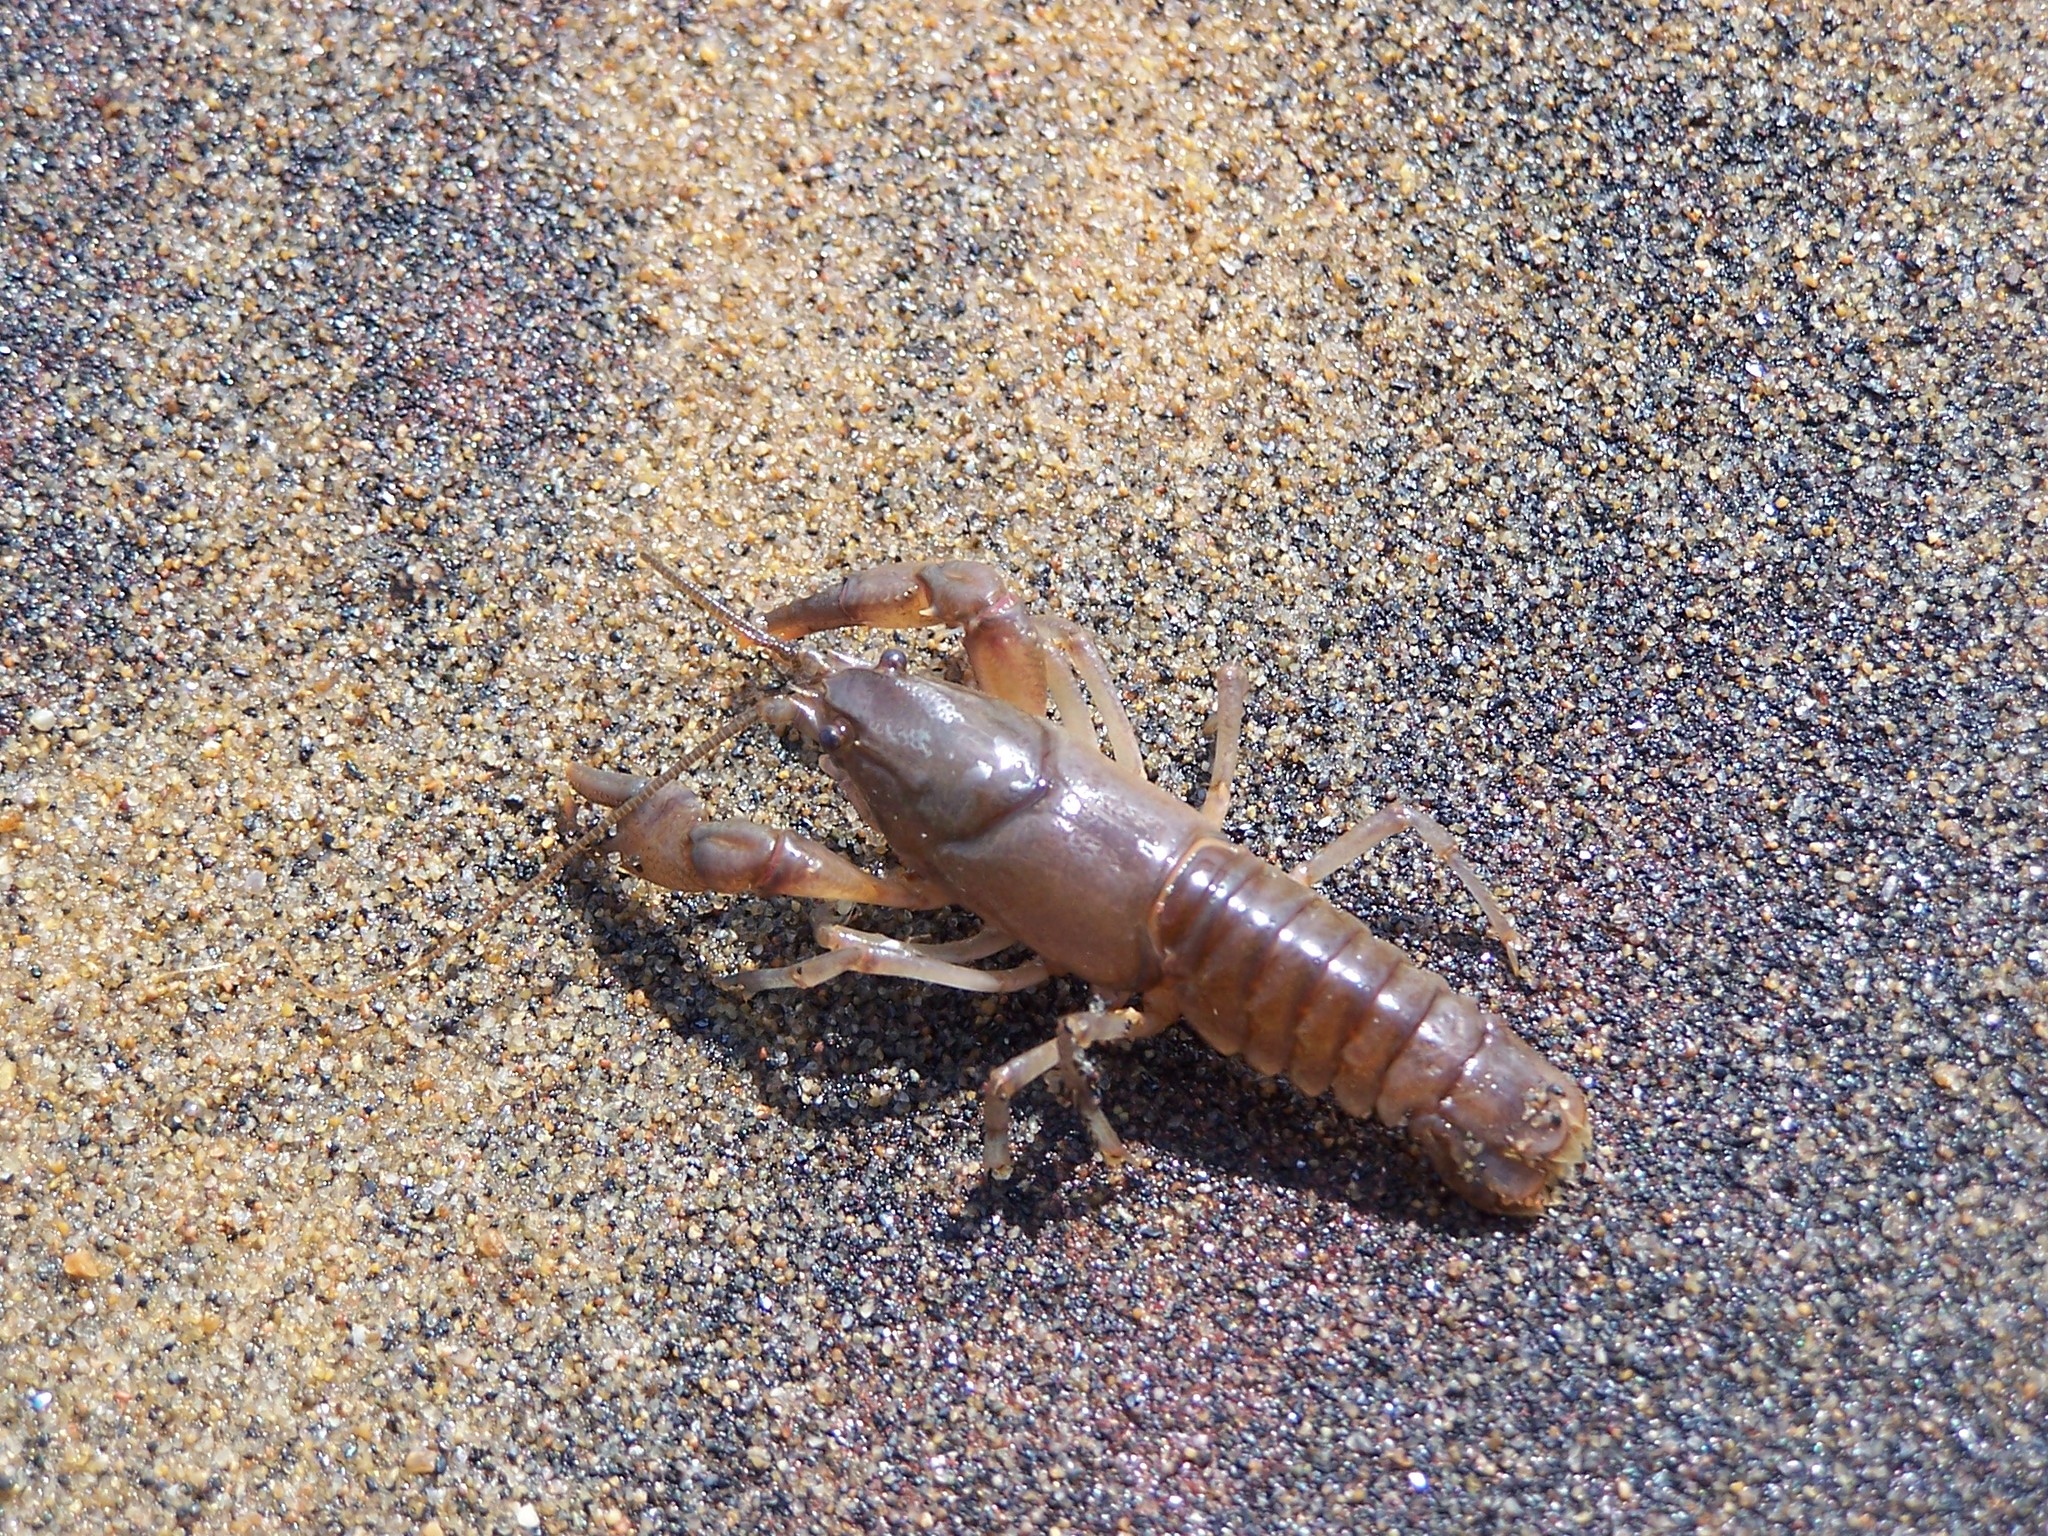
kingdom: Animalia
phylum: Arthropoda
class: Malacostraca
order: Decapoda
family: Cambaridae
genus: Cambarus
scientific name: Cambarus bartonii
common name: Appalachian brook crayfish
